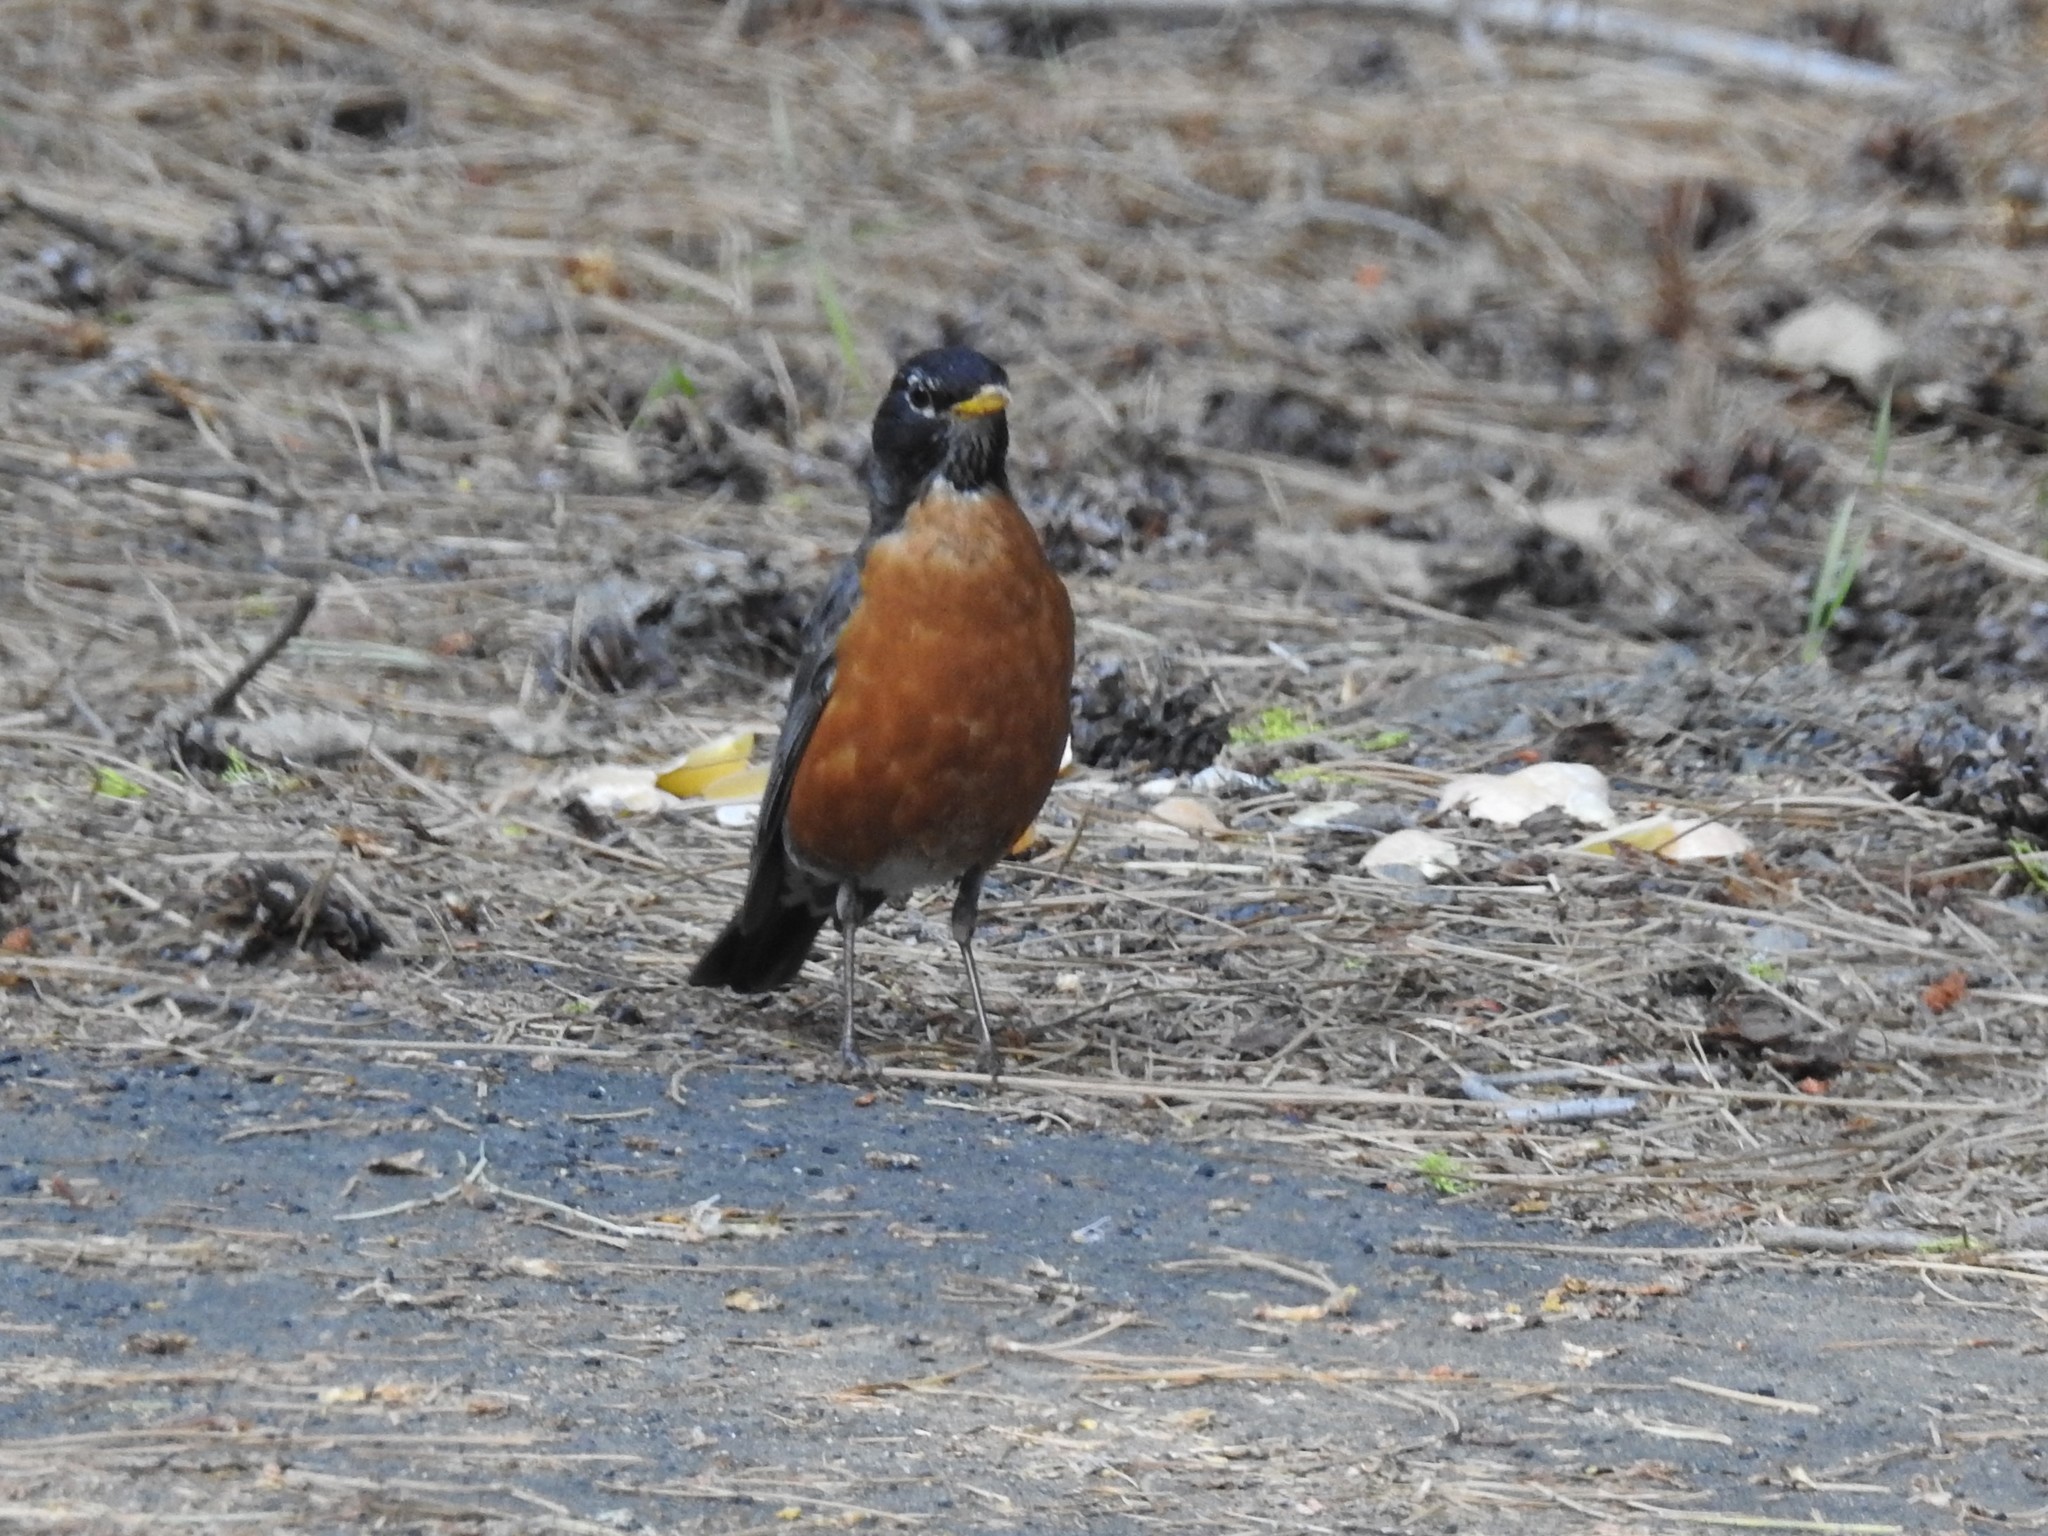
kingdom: Animalia
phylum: Chordata
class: Aves
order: Passeriformes
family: Turdidae
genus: Turdus
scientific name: Turdus migratorius
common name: American robin
